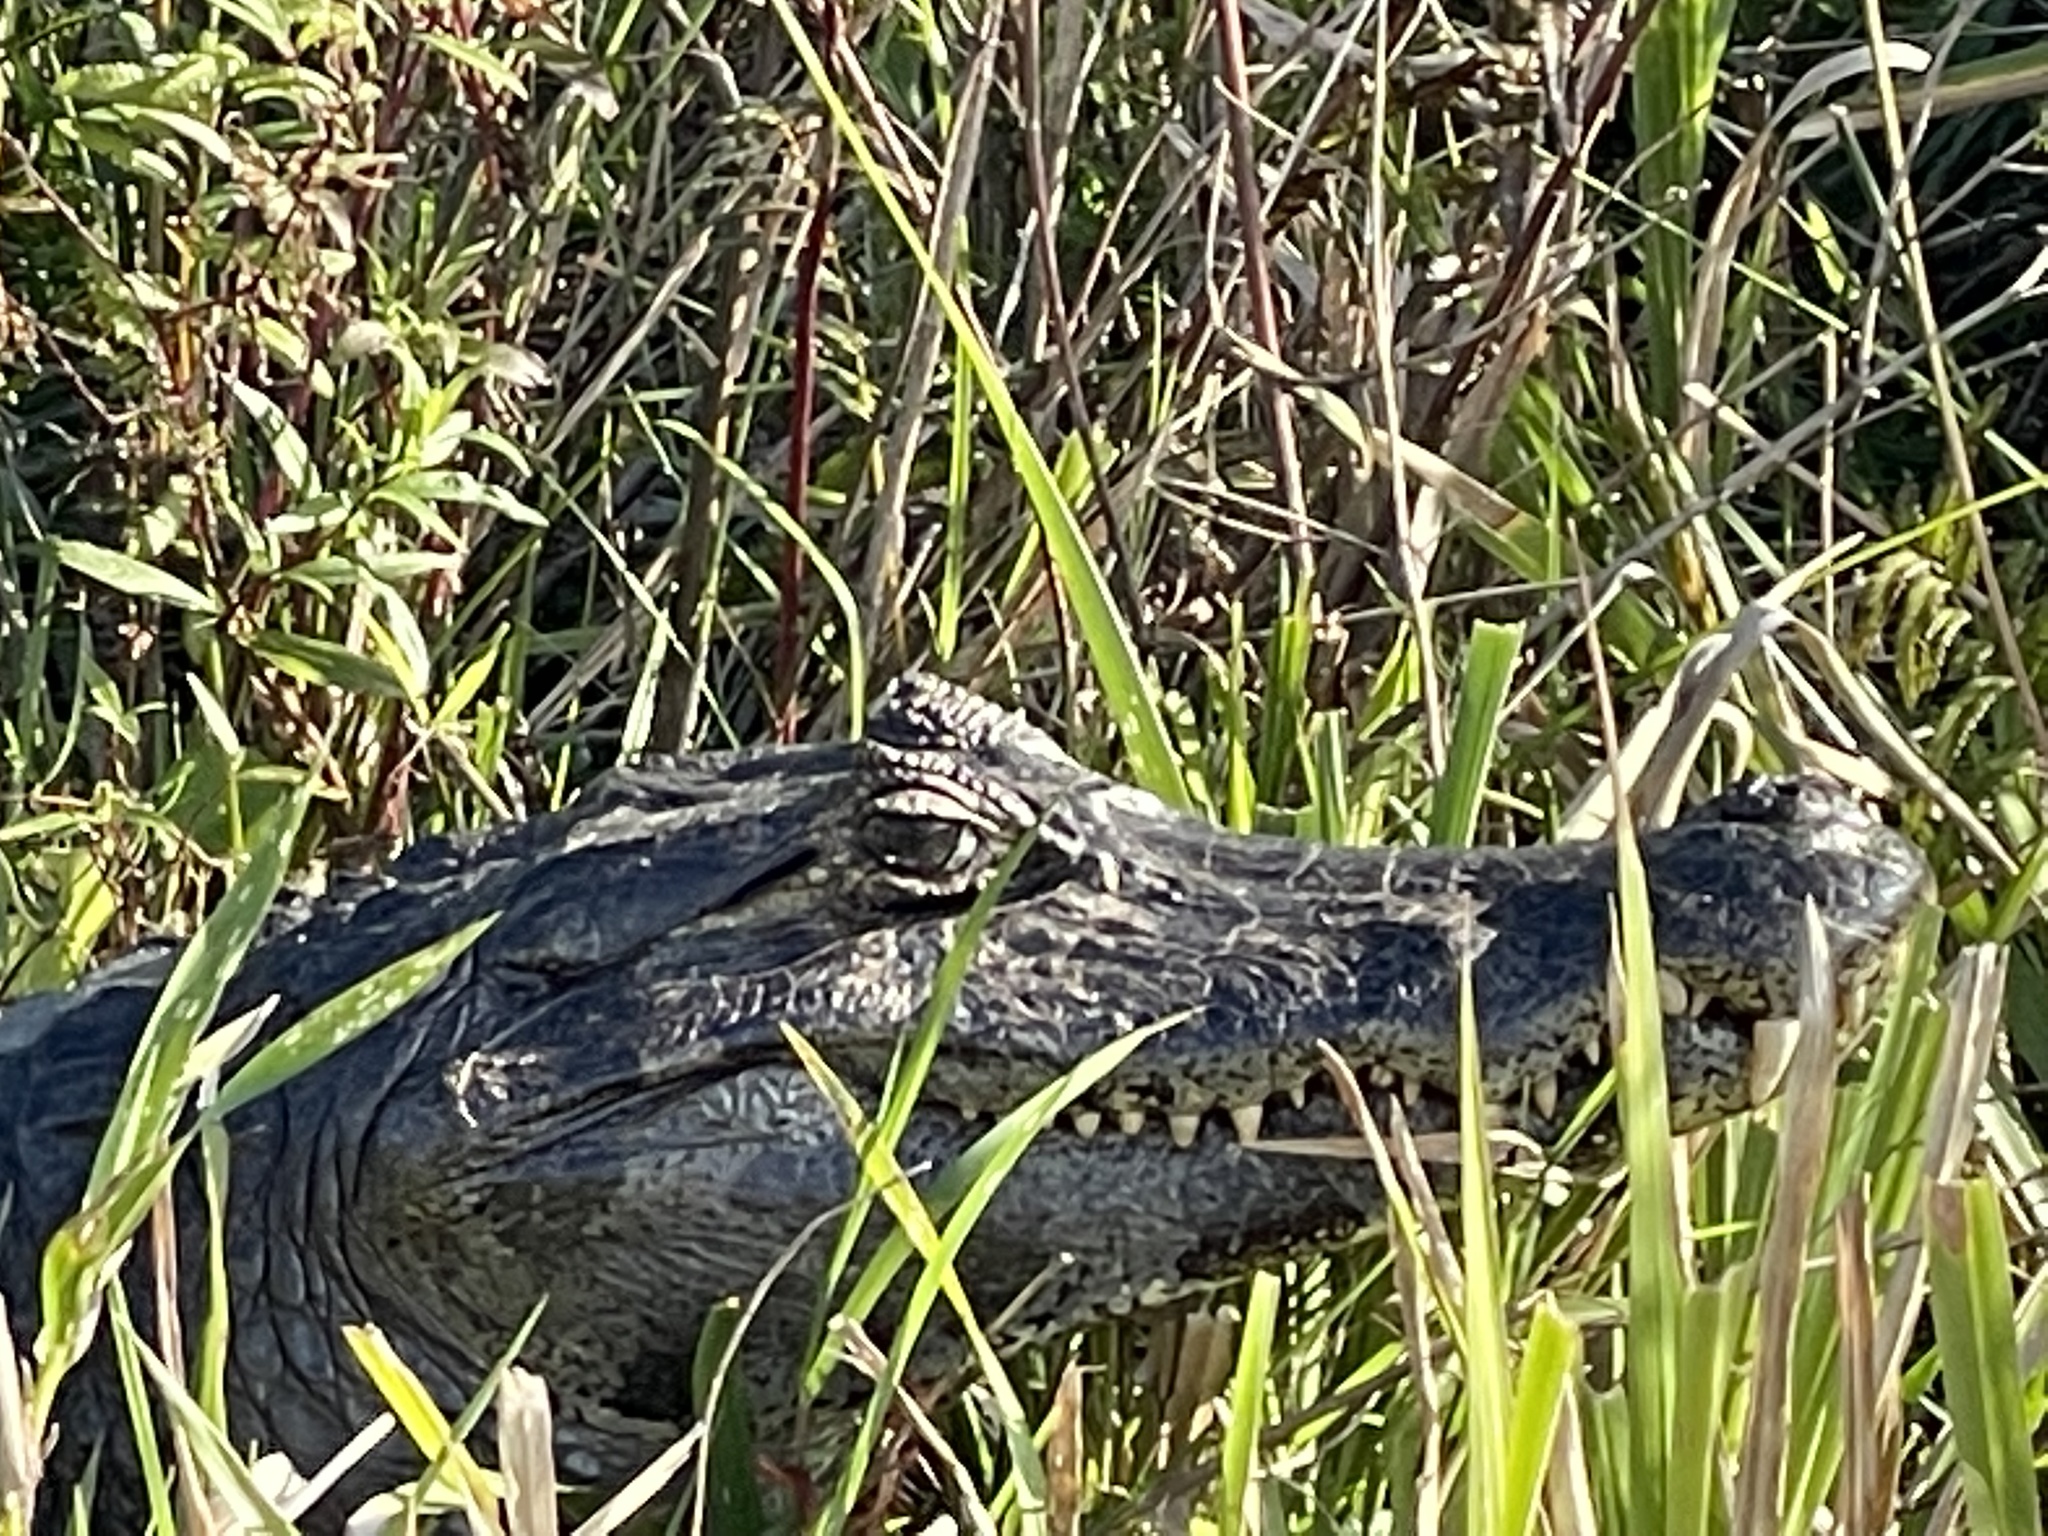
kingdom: Animalia
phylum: Chordata
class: Crocodylia
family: Alligatoridae
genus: Caiman
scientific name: Caiman yacare
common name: Yacare caiman
